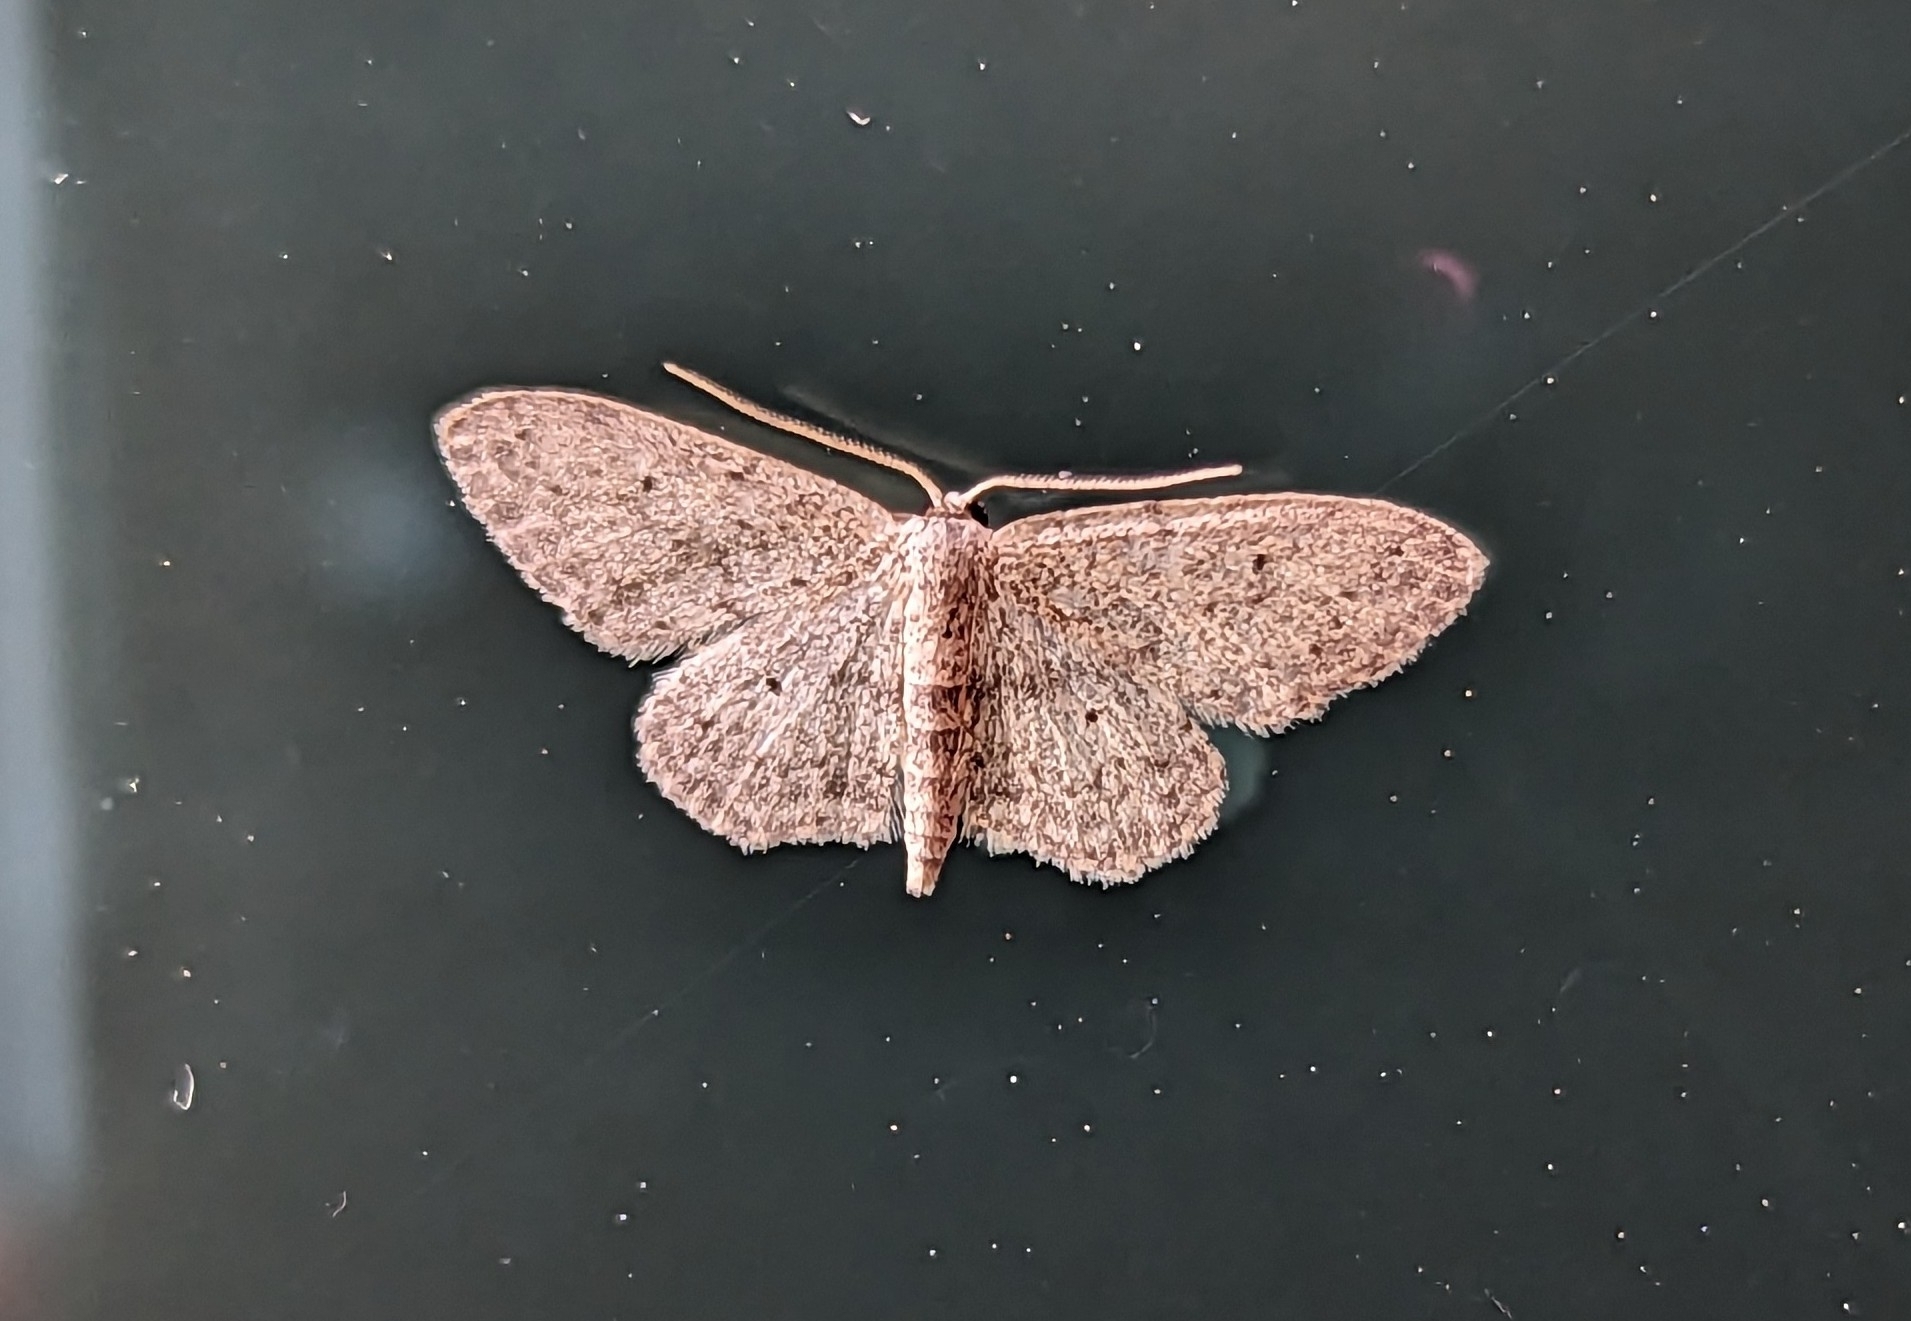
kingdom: Animalia
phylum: Arthropoda
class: Insecta
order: Lepidoptera
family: Geometridae
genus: Idaea
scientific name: Idaea seriata
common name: Small dusty wave
